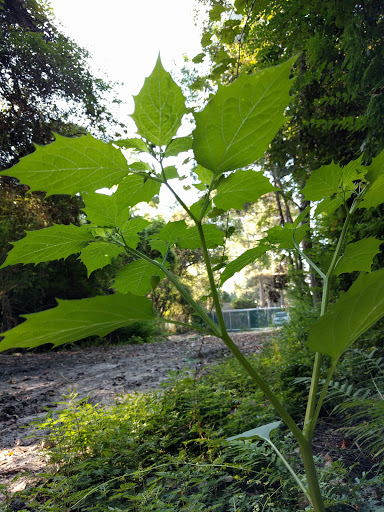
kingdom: Plantae
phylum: Tracheophyta
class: Magnoliopsida
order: Solanales
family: Solanaceae
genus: Physalis
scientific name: Physalis angulata
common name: Angular winter-cherry
